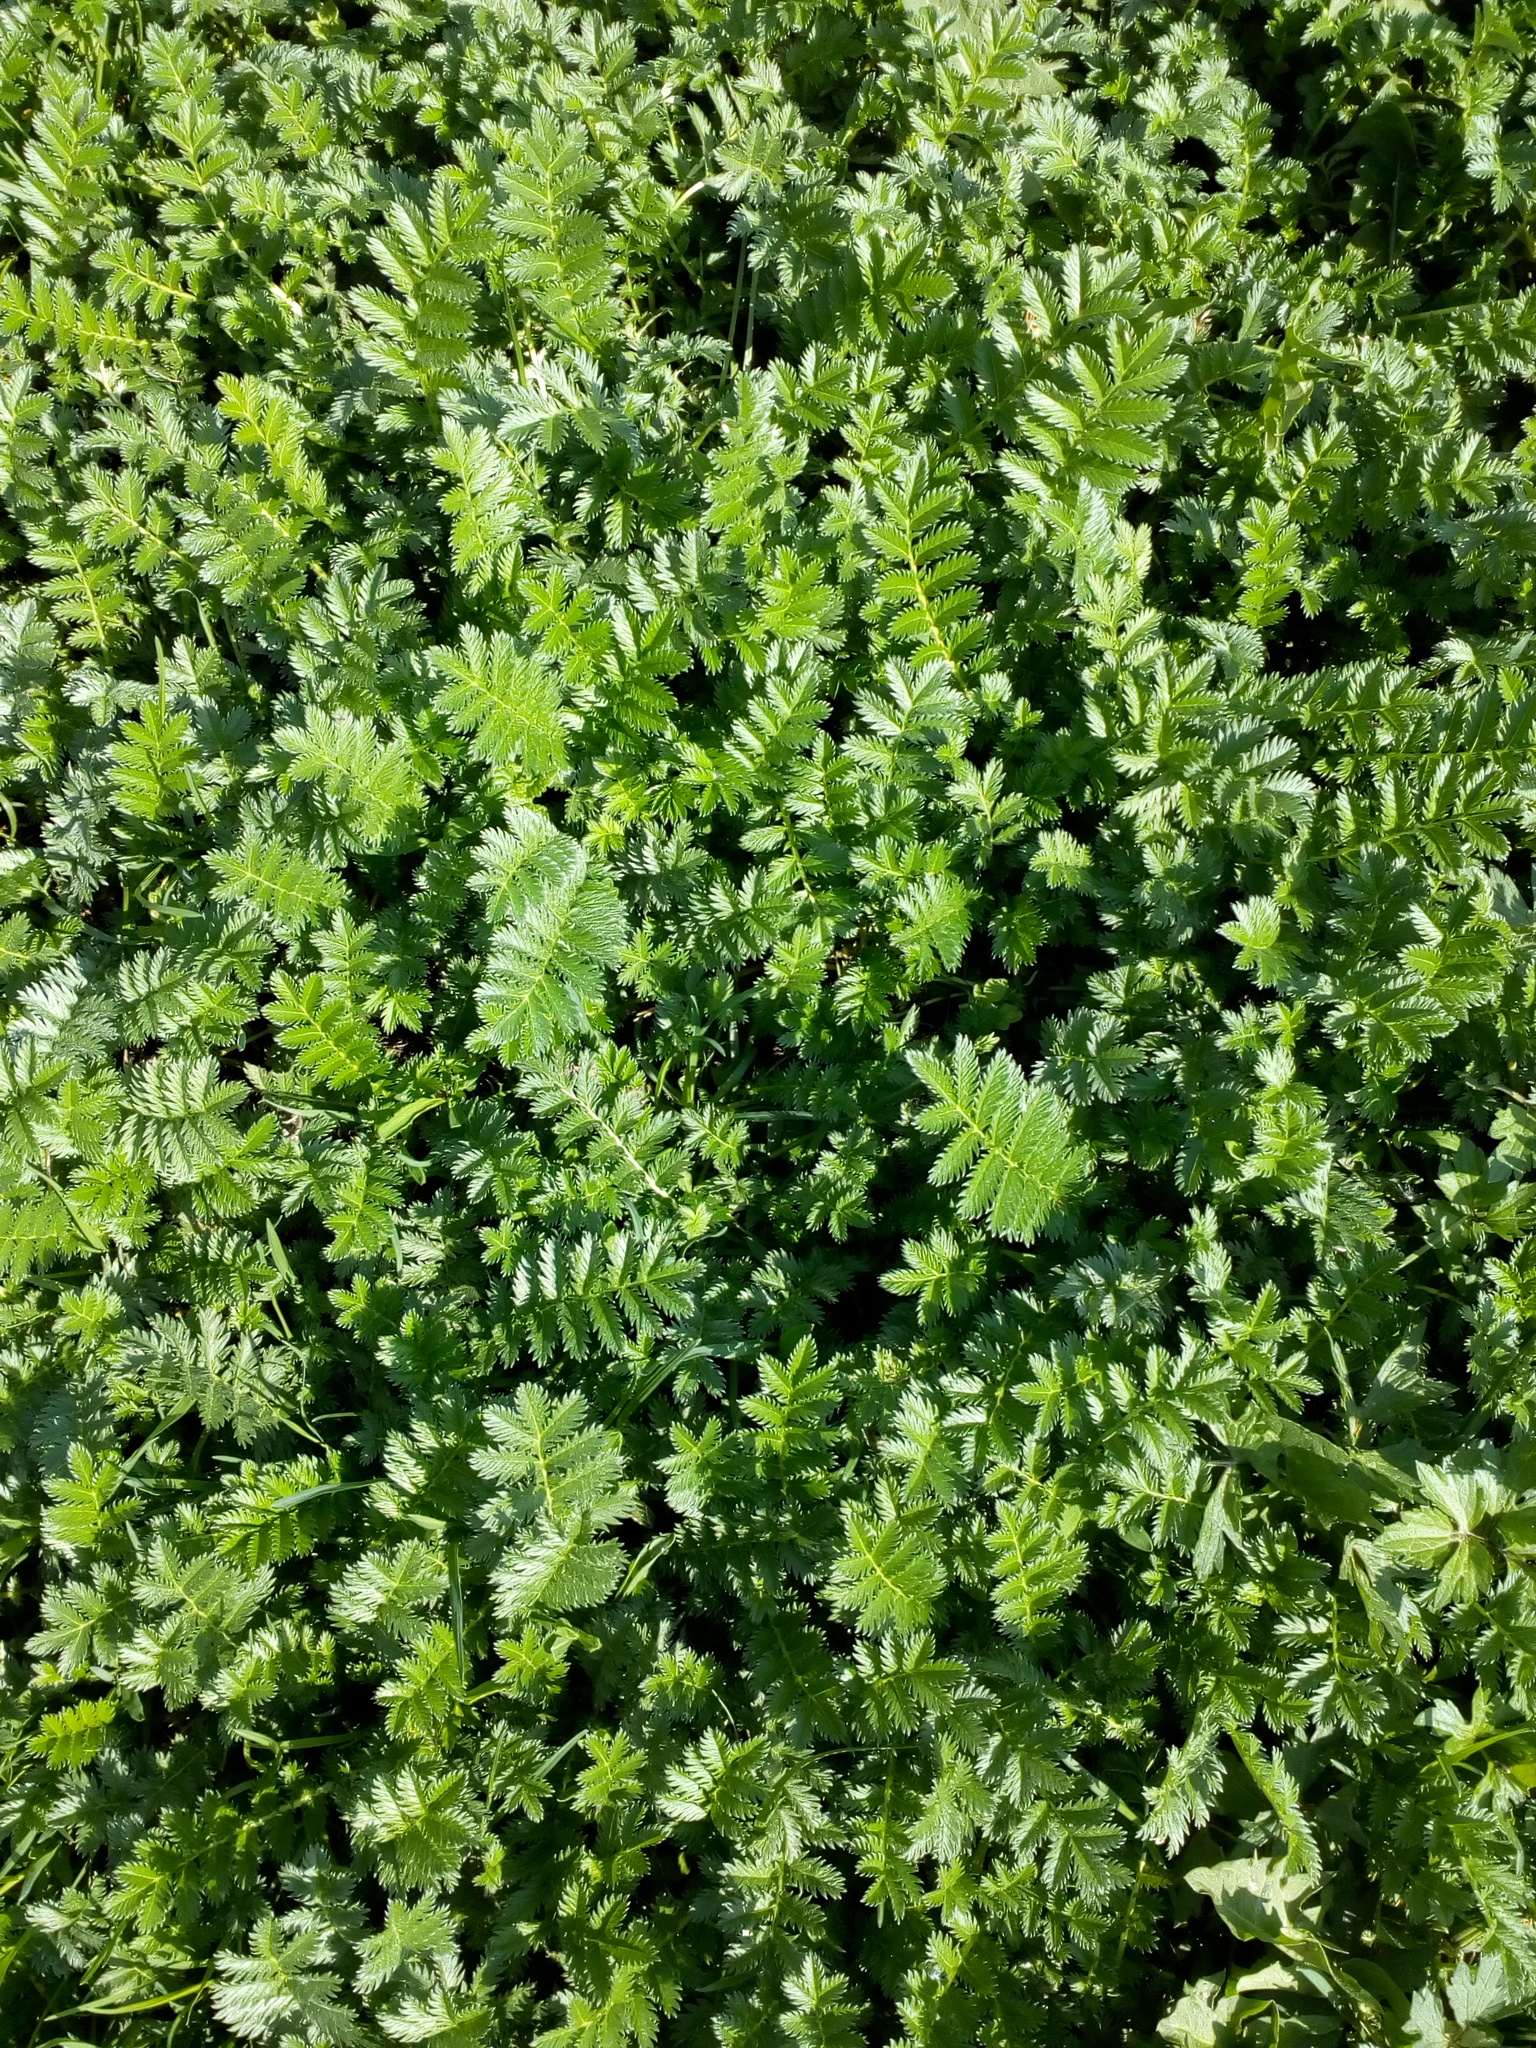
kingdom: Plantae
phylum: Tracheophyta
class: Magnoliopsida
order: Rosales
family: Rosaceae
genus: Argentina
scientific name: Argentina anserina
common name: Common silverweed
